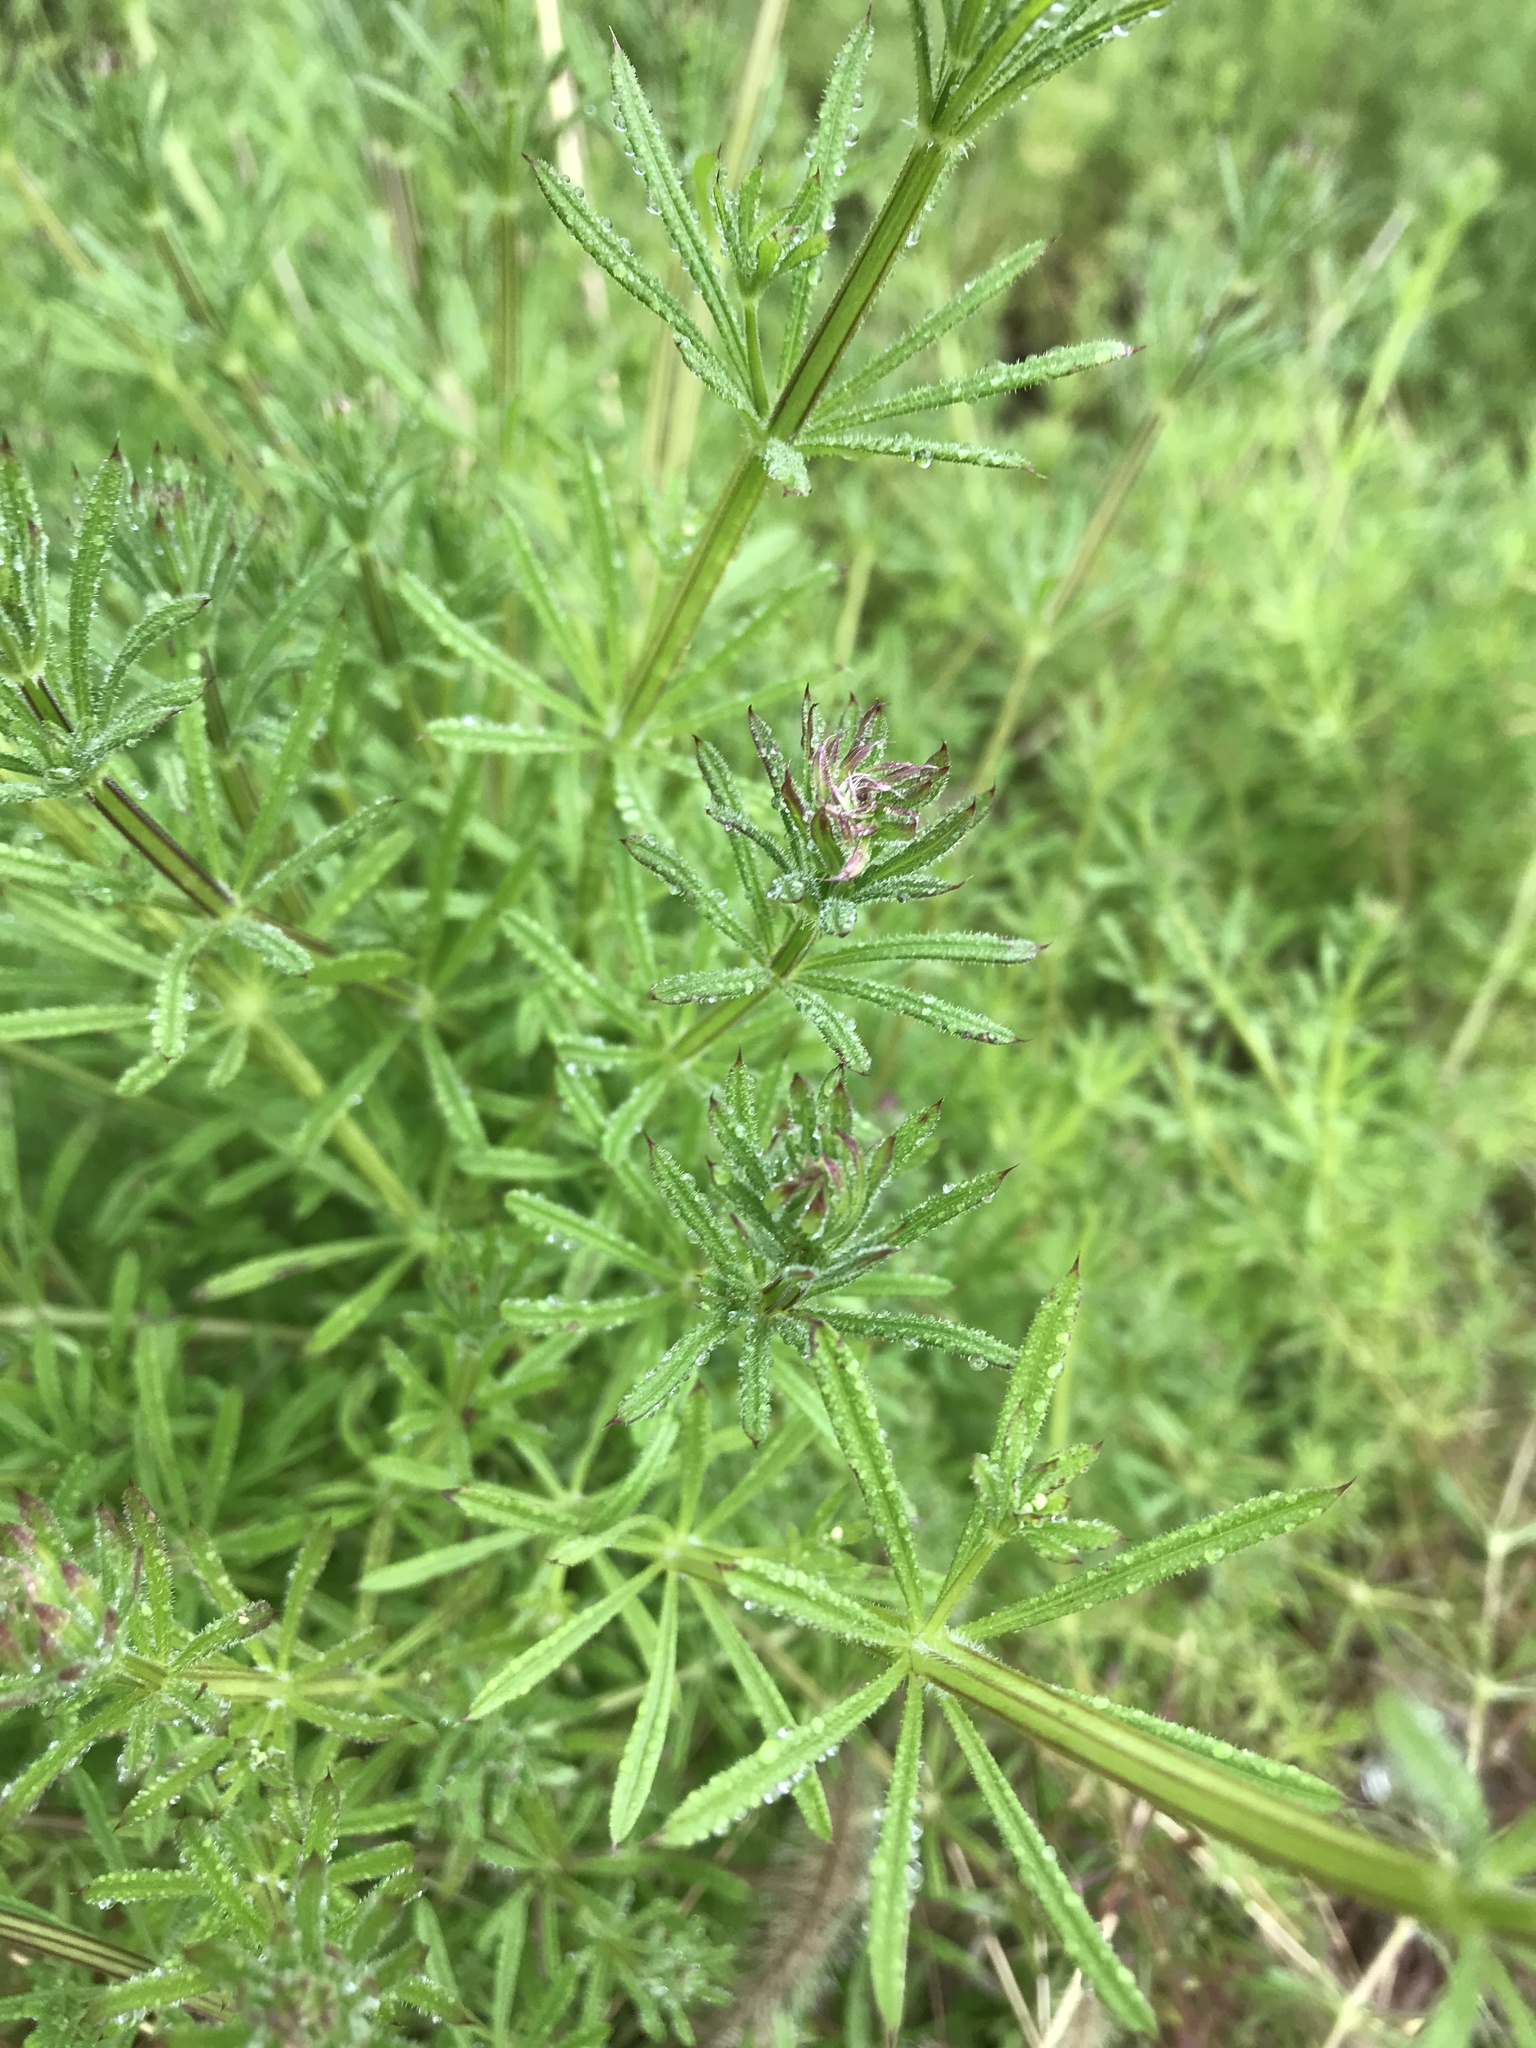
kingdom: Plantae
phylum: Tracheophyta
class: Magnoliopsida
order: Gentianales
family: Rubiaceae
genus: Galium
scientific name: Galium aparine
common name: Cleavers
